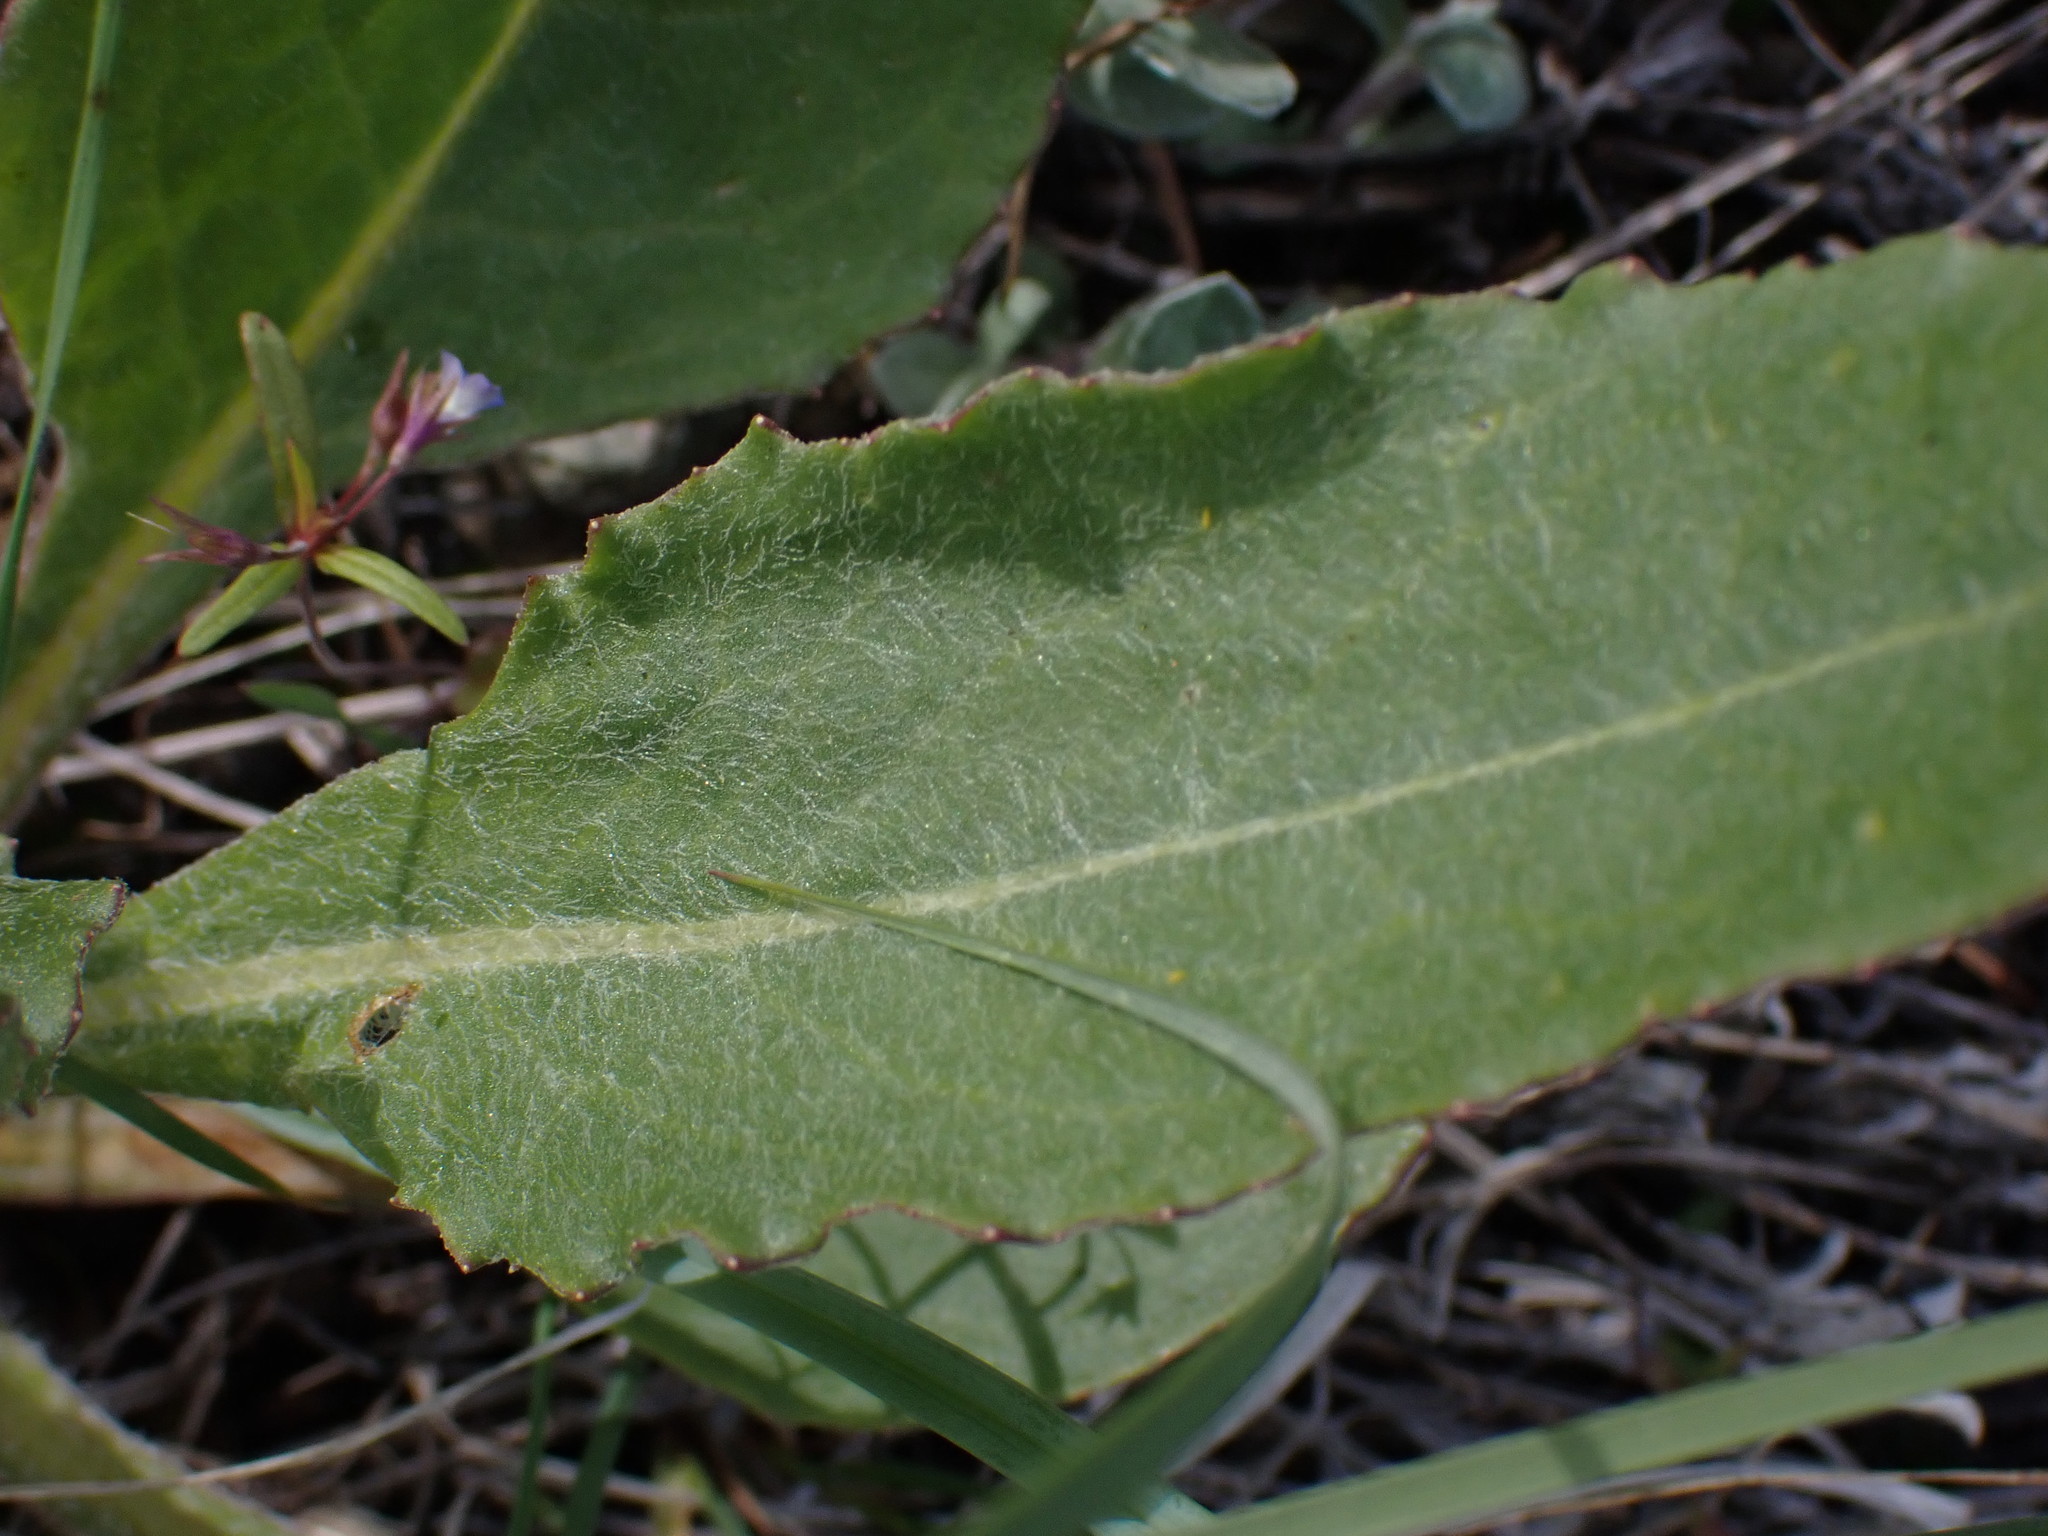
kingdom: Plantae
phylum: Tracheophyta
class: Magnoliopsida
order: Asterales
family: Asteraceae
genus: Senecio
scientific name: Senecio integerrimus
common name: Gaugeplant
